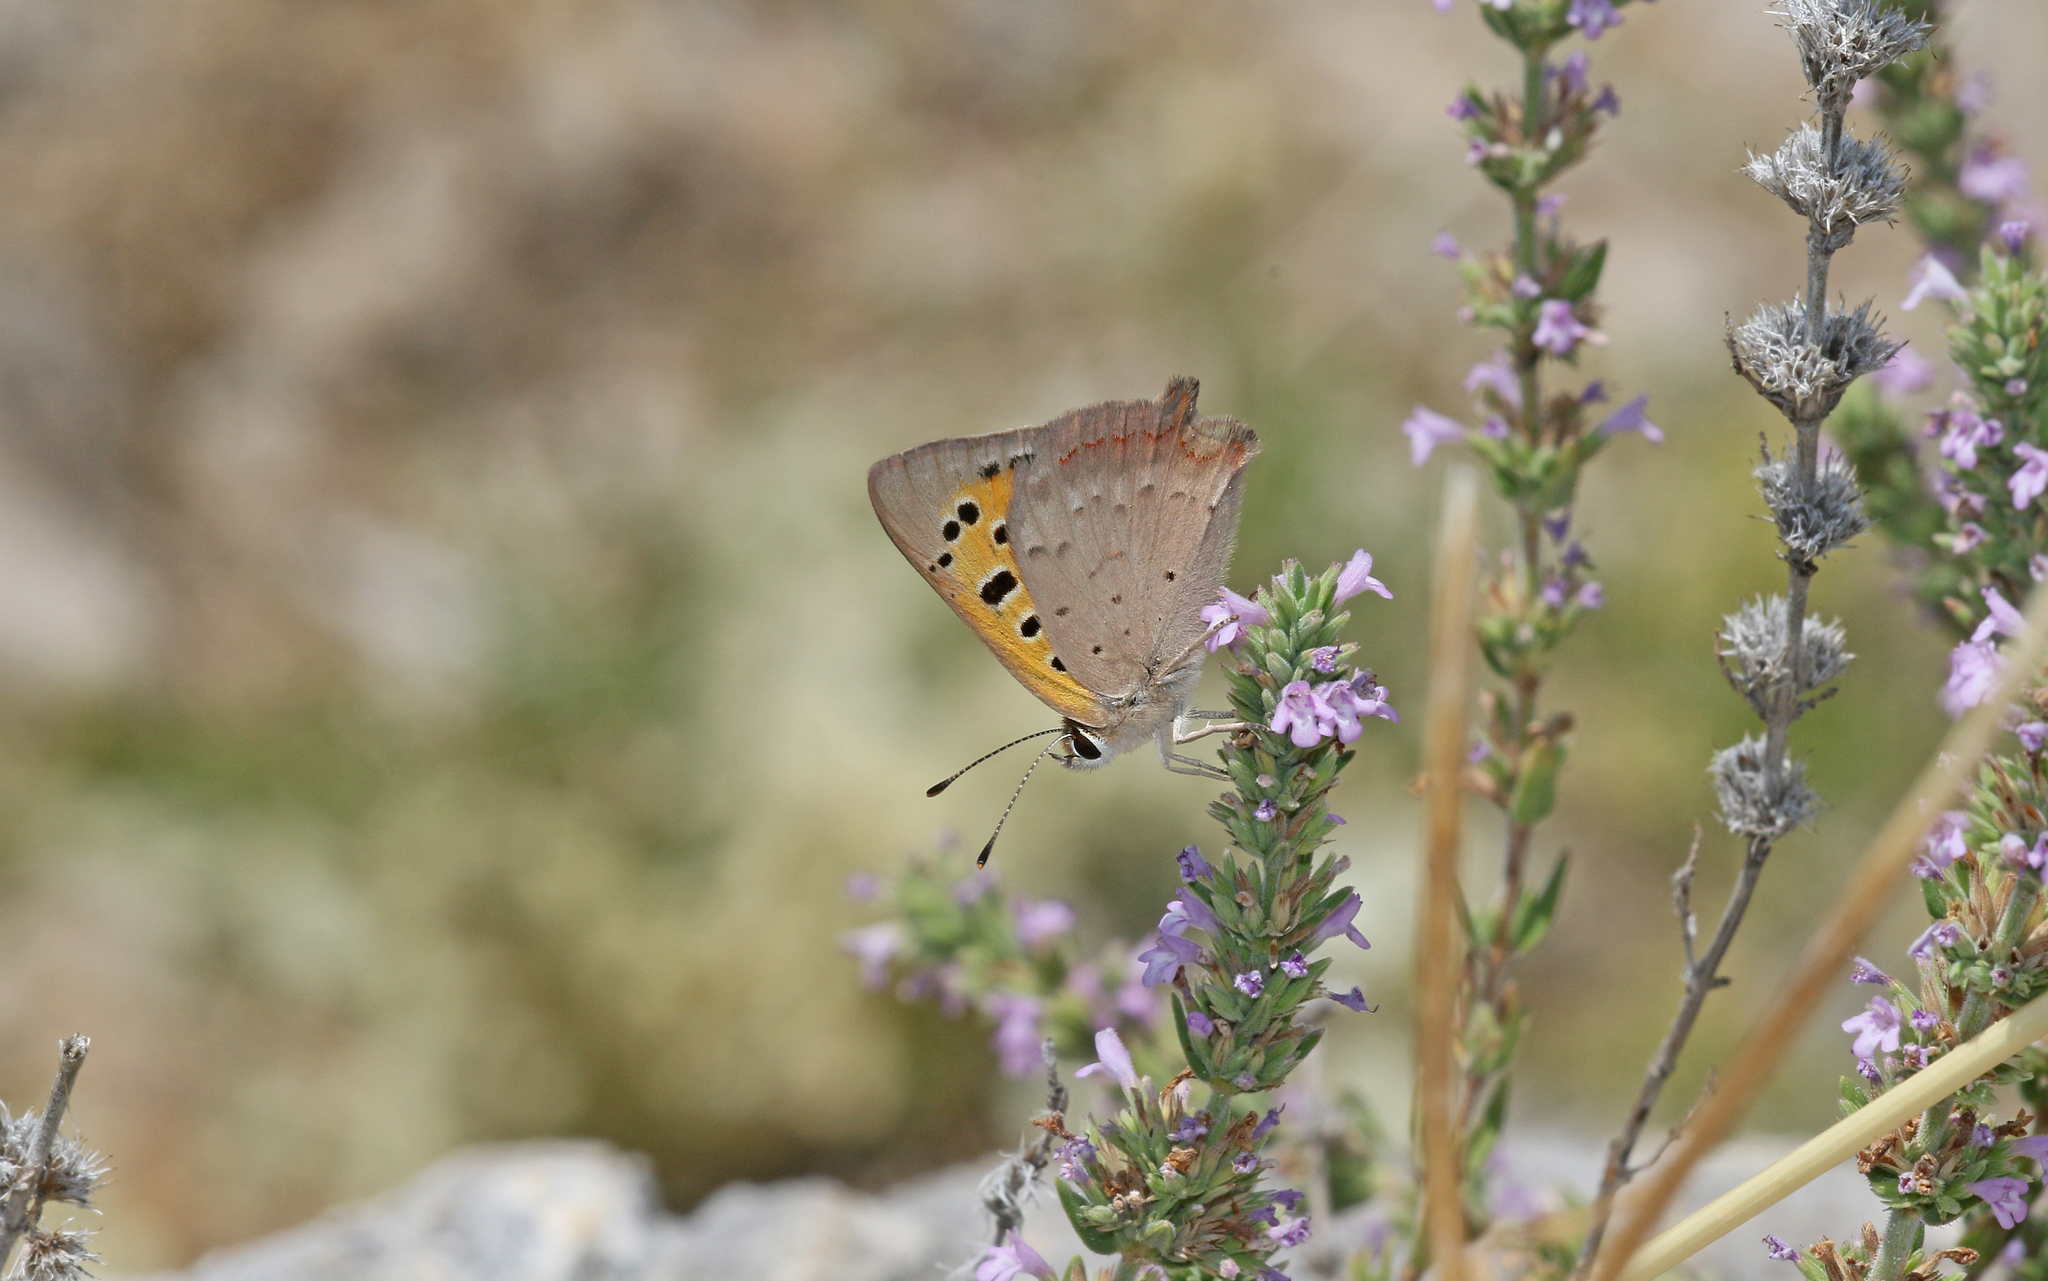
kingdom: Animalia
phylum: Arthropoda
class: Insecta
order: Lepidoptera
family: Lycaenidae
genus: Lycaena
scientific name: Lycaena phlaeas
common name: Small copper
